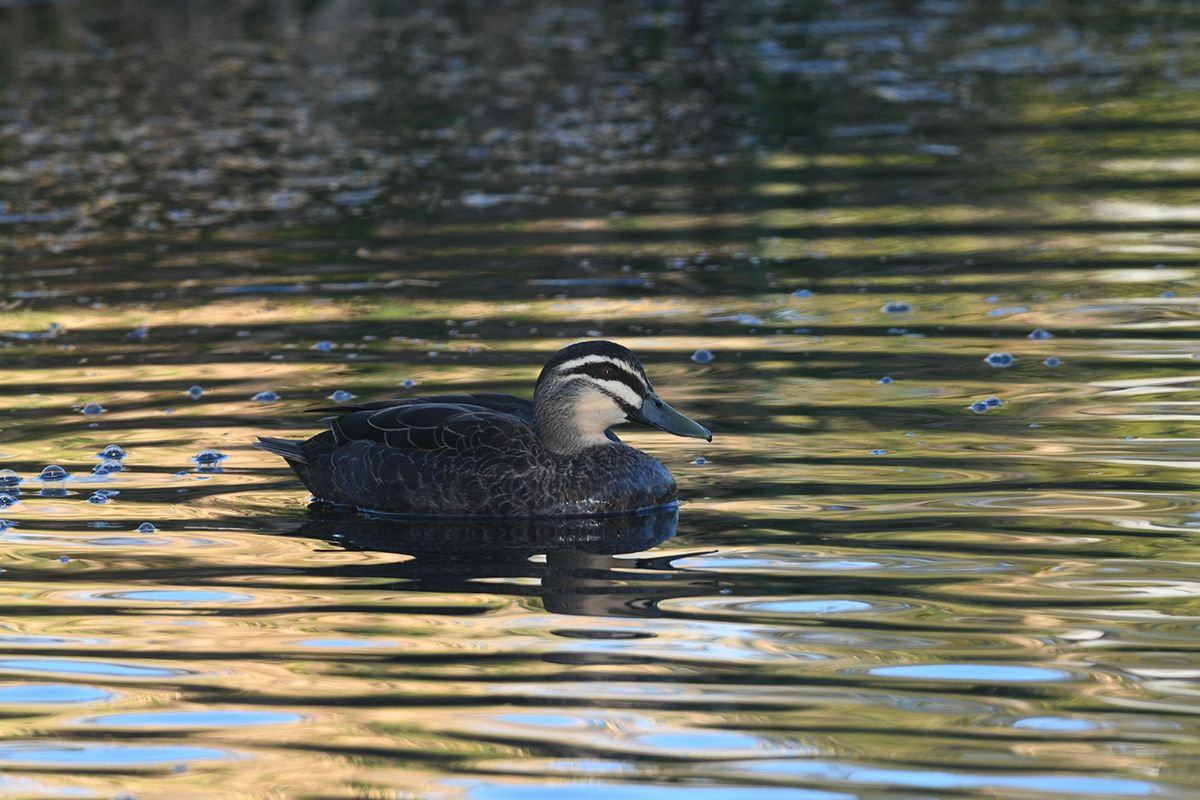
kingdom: Animalia
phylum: Chordata
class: Aves
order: Anseriformes
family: Anatidae
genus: Anas
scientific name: Anas superciliosa
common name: Pacific black duck
